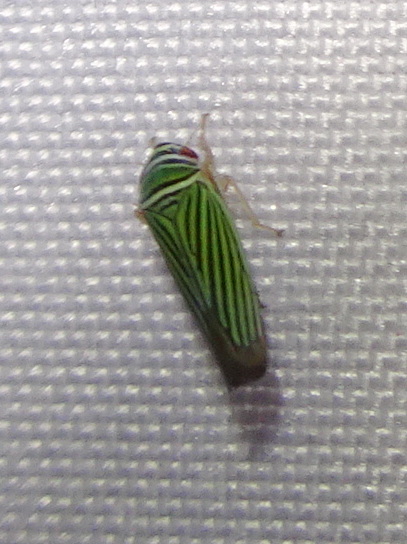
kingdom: Animalia
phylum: Arthropoda
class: Insecta
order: Hemiptera
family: Cicadellidae
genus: Tylozygus
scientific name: Tylozygus bifidus
